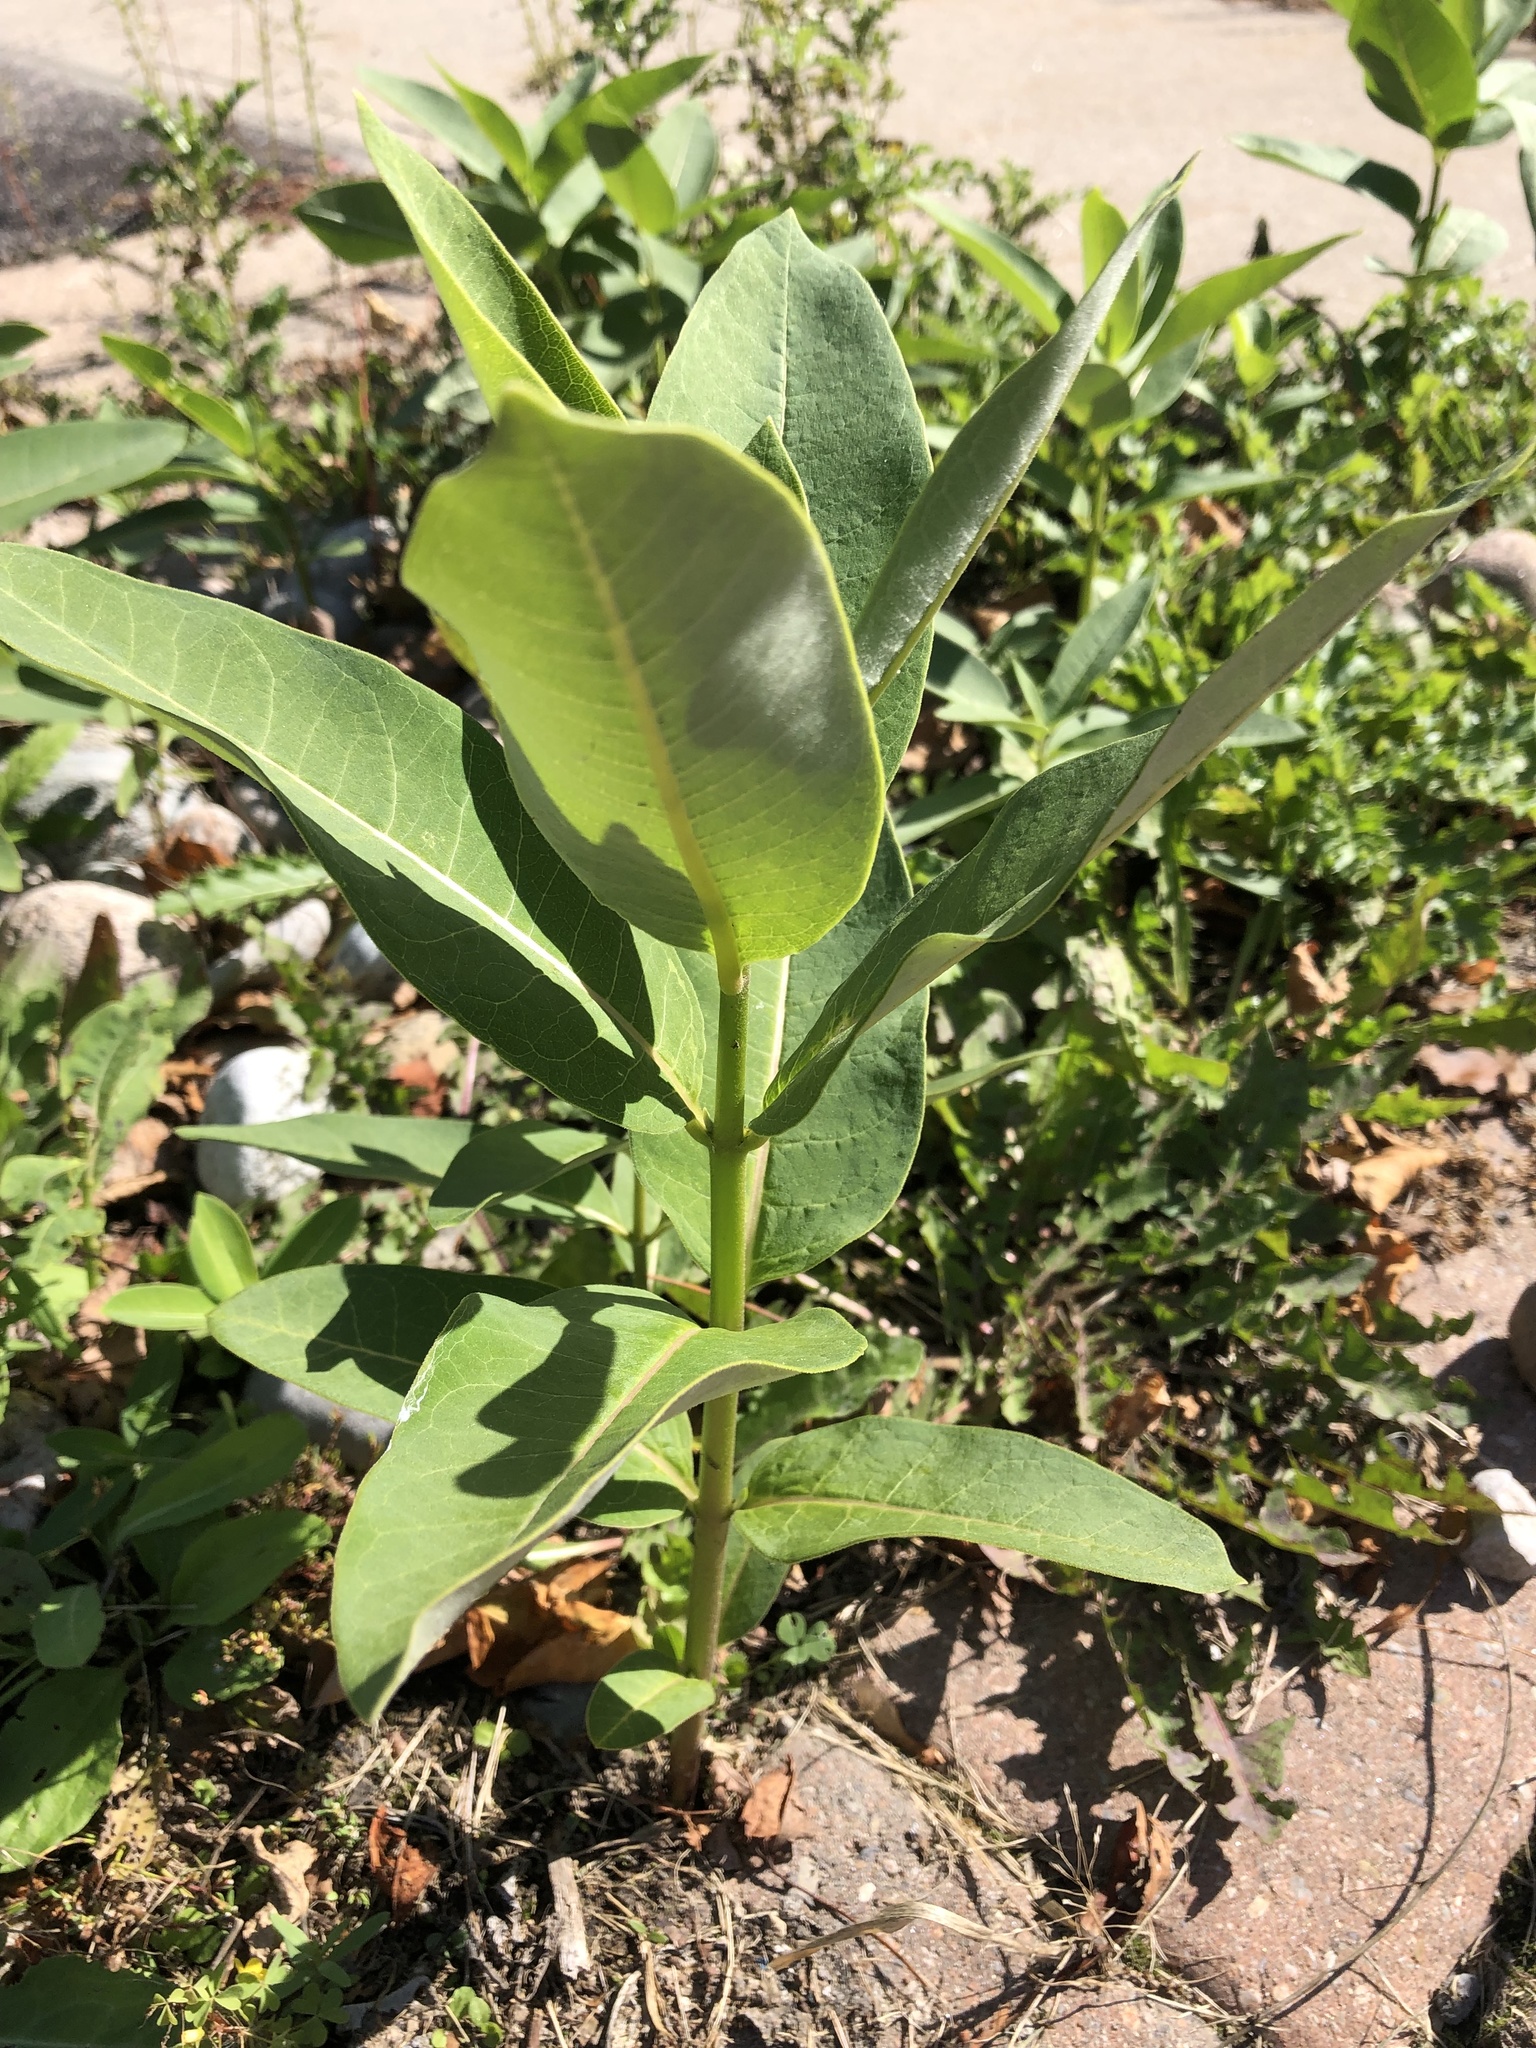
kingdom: Plantae
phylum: Tracheophyta
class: Magnoliopsida
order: Gentianales
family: Apocynaceae
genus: Asclepias
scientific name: Asclepias syriaca
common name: Common milkweed
